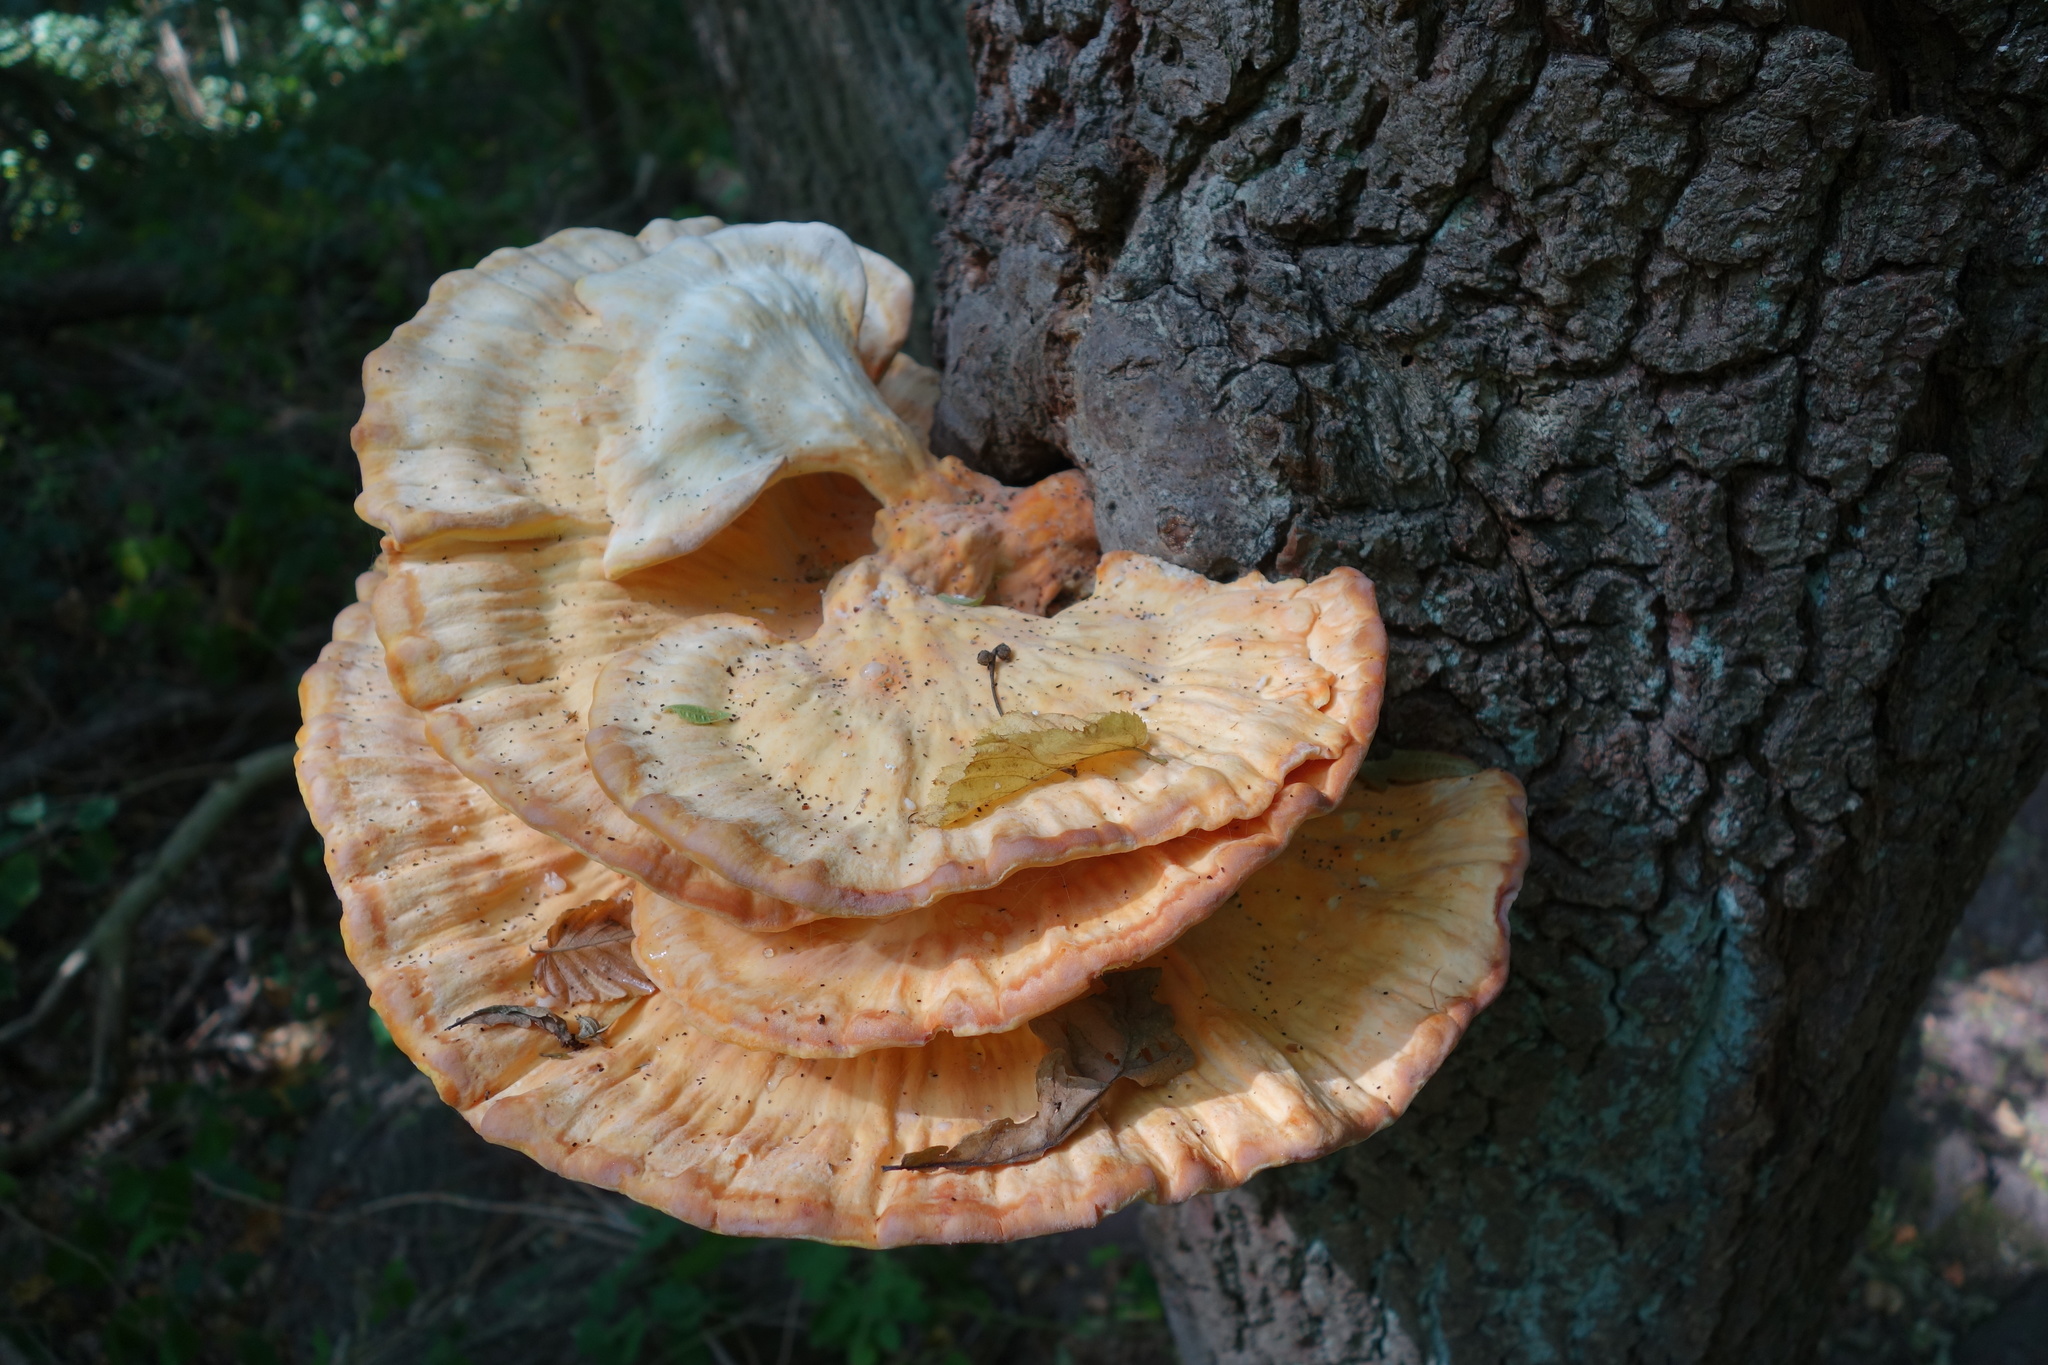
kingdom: Fungi
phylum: Basidiomycota
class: Agaricomycetes
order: Polyporales
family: Laetiporaceae
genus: Laetiporus
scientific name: Laetiporus sulphureus
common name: Chicken of the woods
